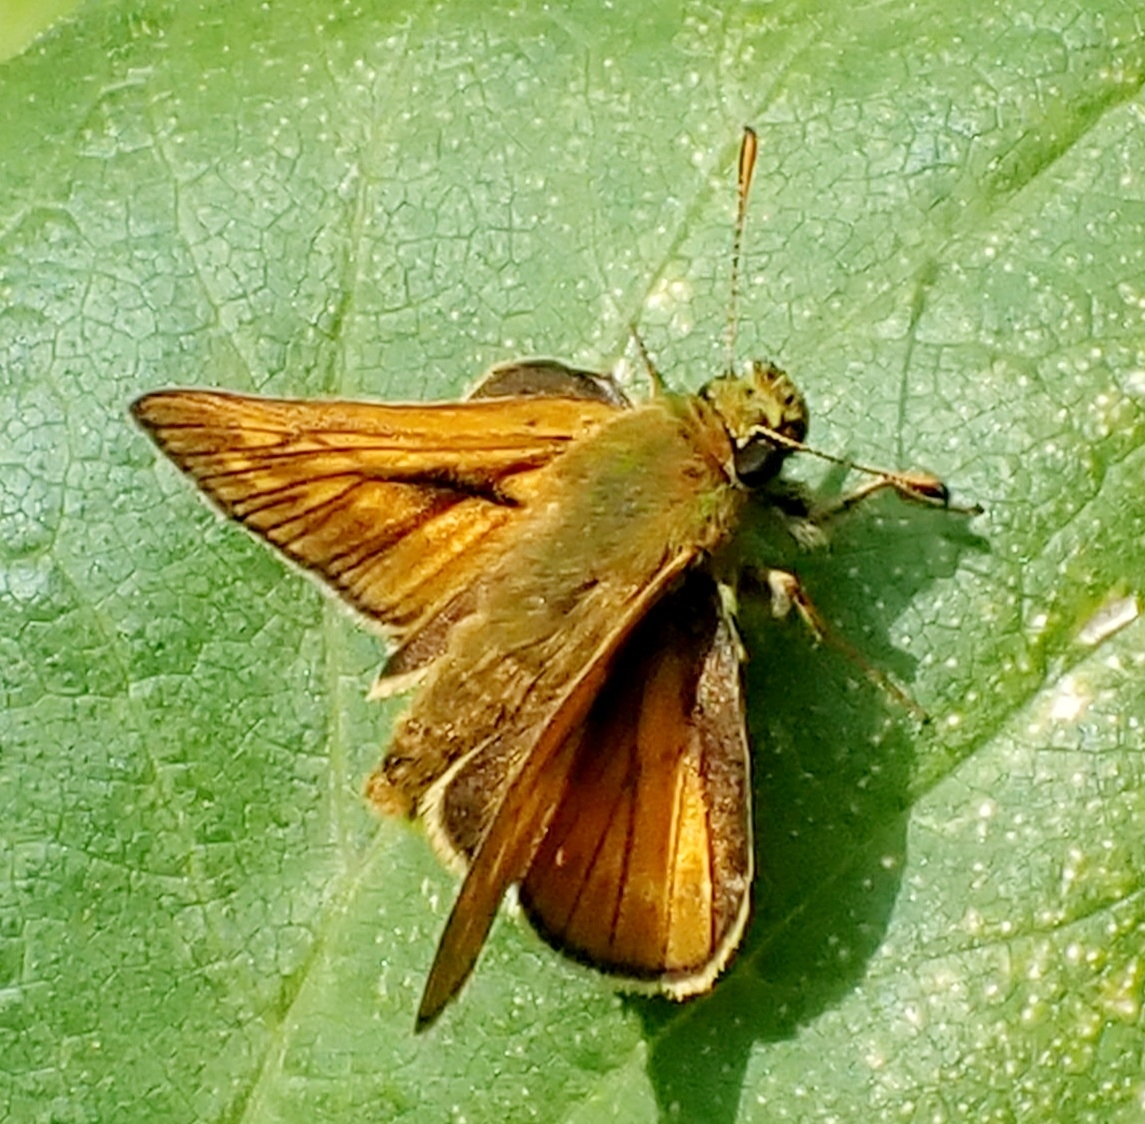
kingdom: Animalia
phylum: Arthropoda
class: Insecta
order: Lepidoptera
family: Hesperiidae
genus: Ochlodes
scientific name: Ochlodes venata
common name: Large skipper
